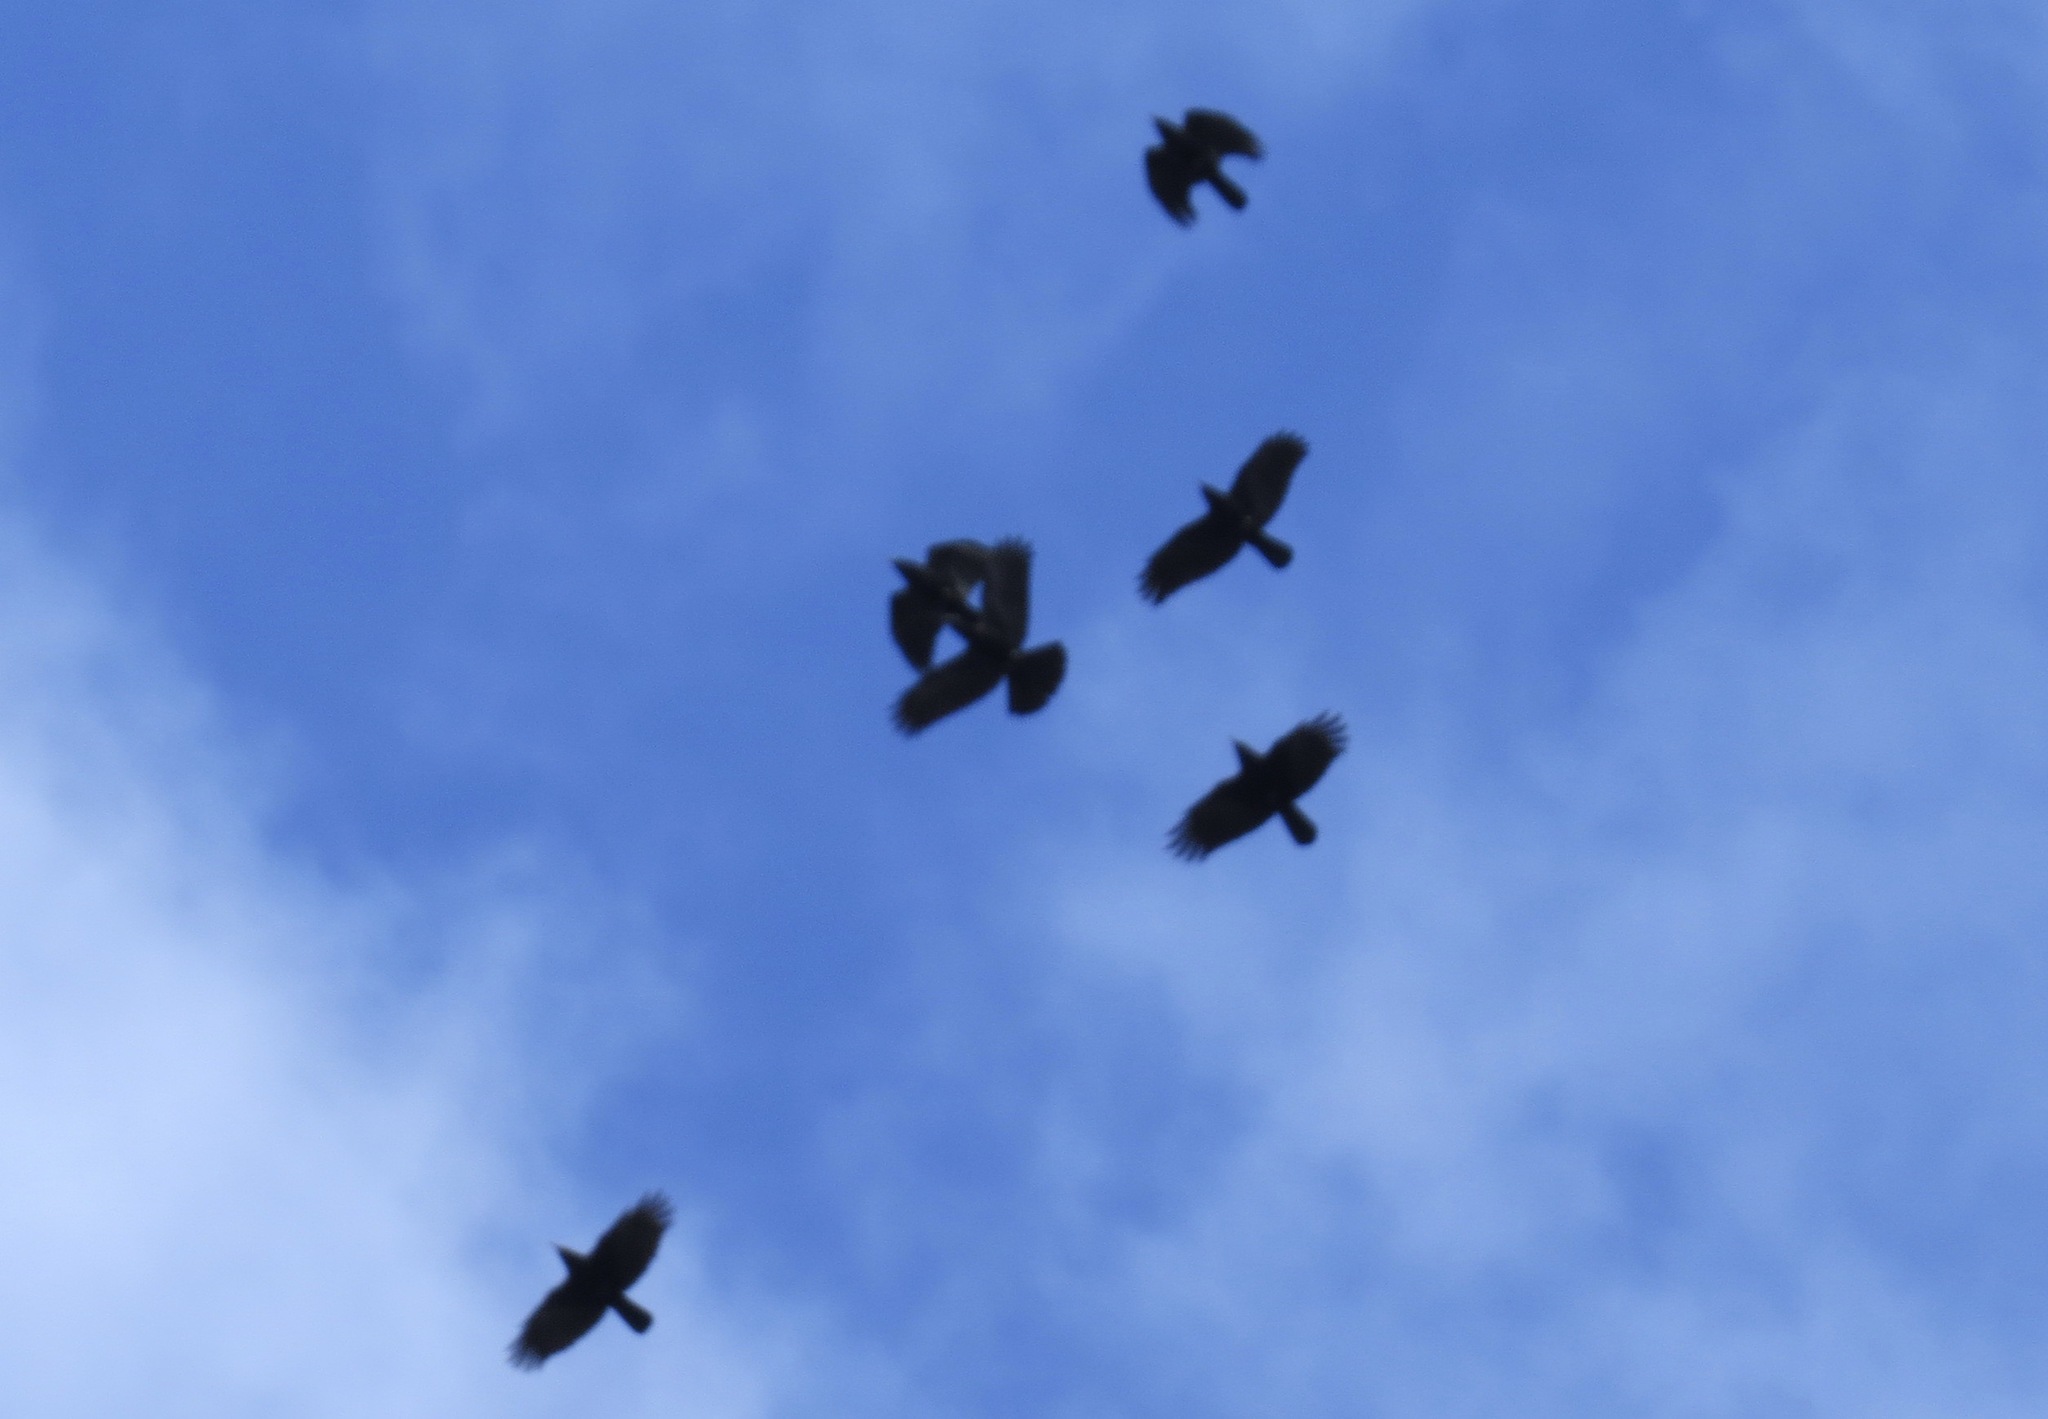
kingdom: Animalia
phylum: Chordata
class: Aves
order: Passeriformes
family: Corvidae
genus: Corvus
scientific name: Corvus brachyrhynchos
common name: American crow
